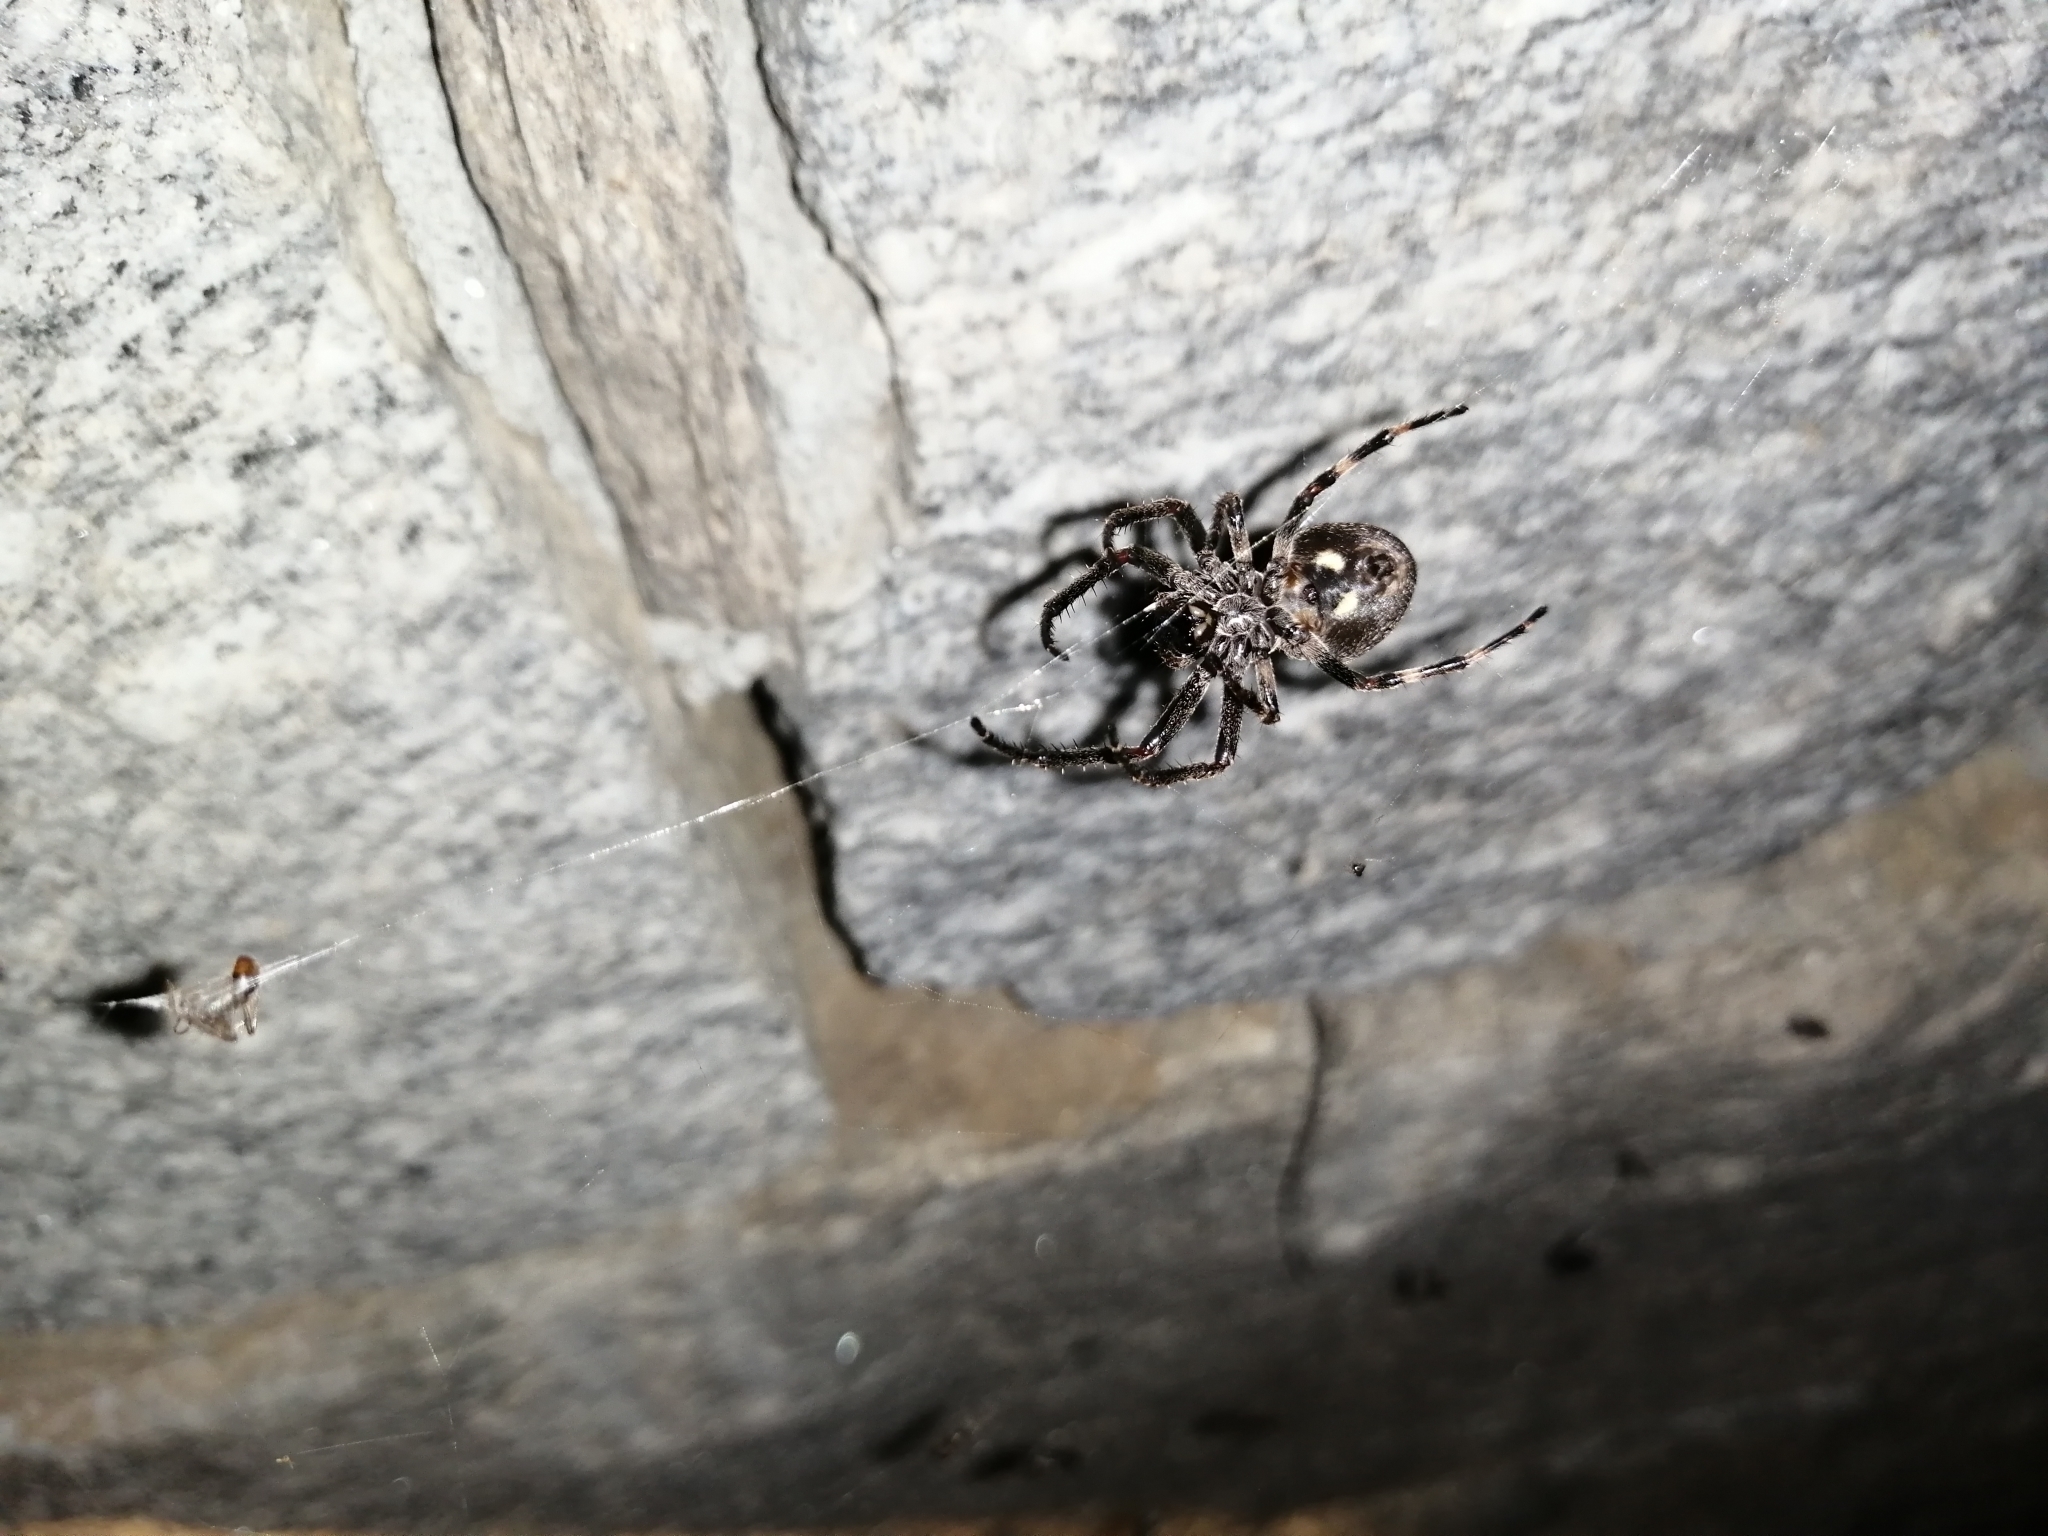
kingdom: Animalia
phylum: Arthropoda
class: Arachnida
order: Araneae
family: Araneidae
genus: Nuctenea
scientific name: Nuctenea umbratica
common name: Toad spider
